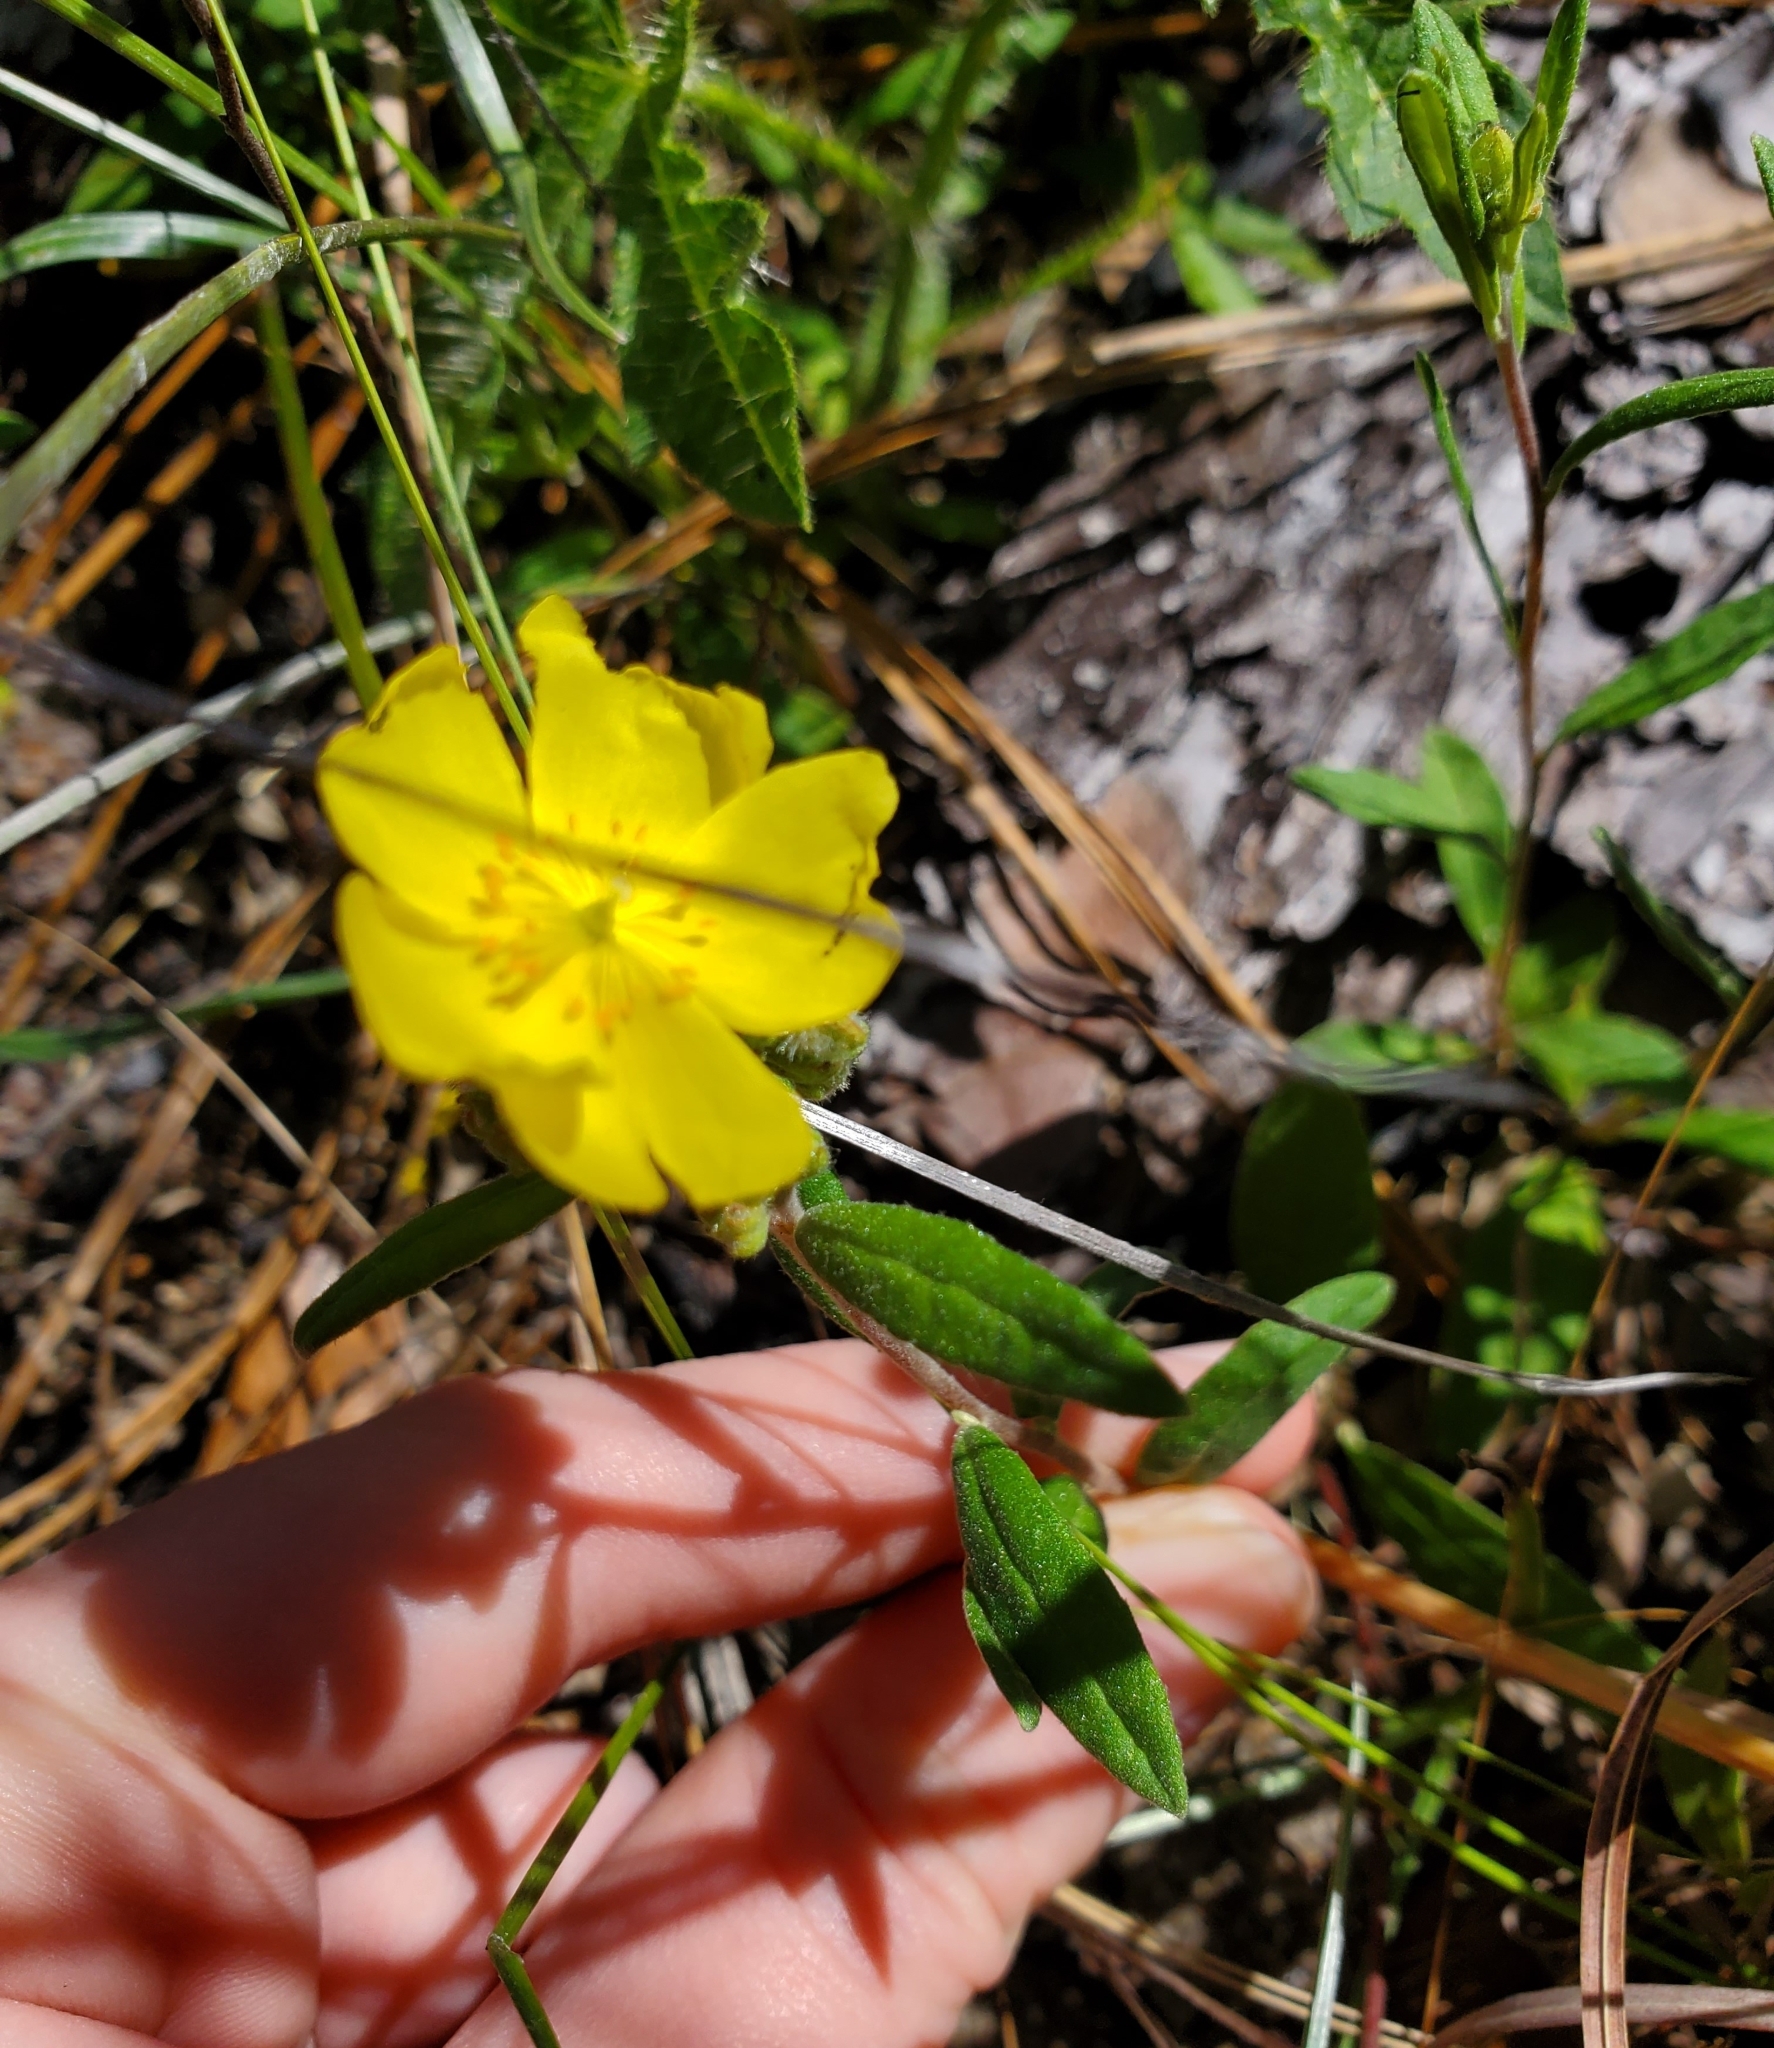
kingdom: Plantae
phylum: Tracheophyta
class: Magnoliopsida
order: Malvales
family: Cistaceae
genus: Crocanthemum
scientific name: Crocanthemum corymbosum
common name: Pinebarren sun-rose
